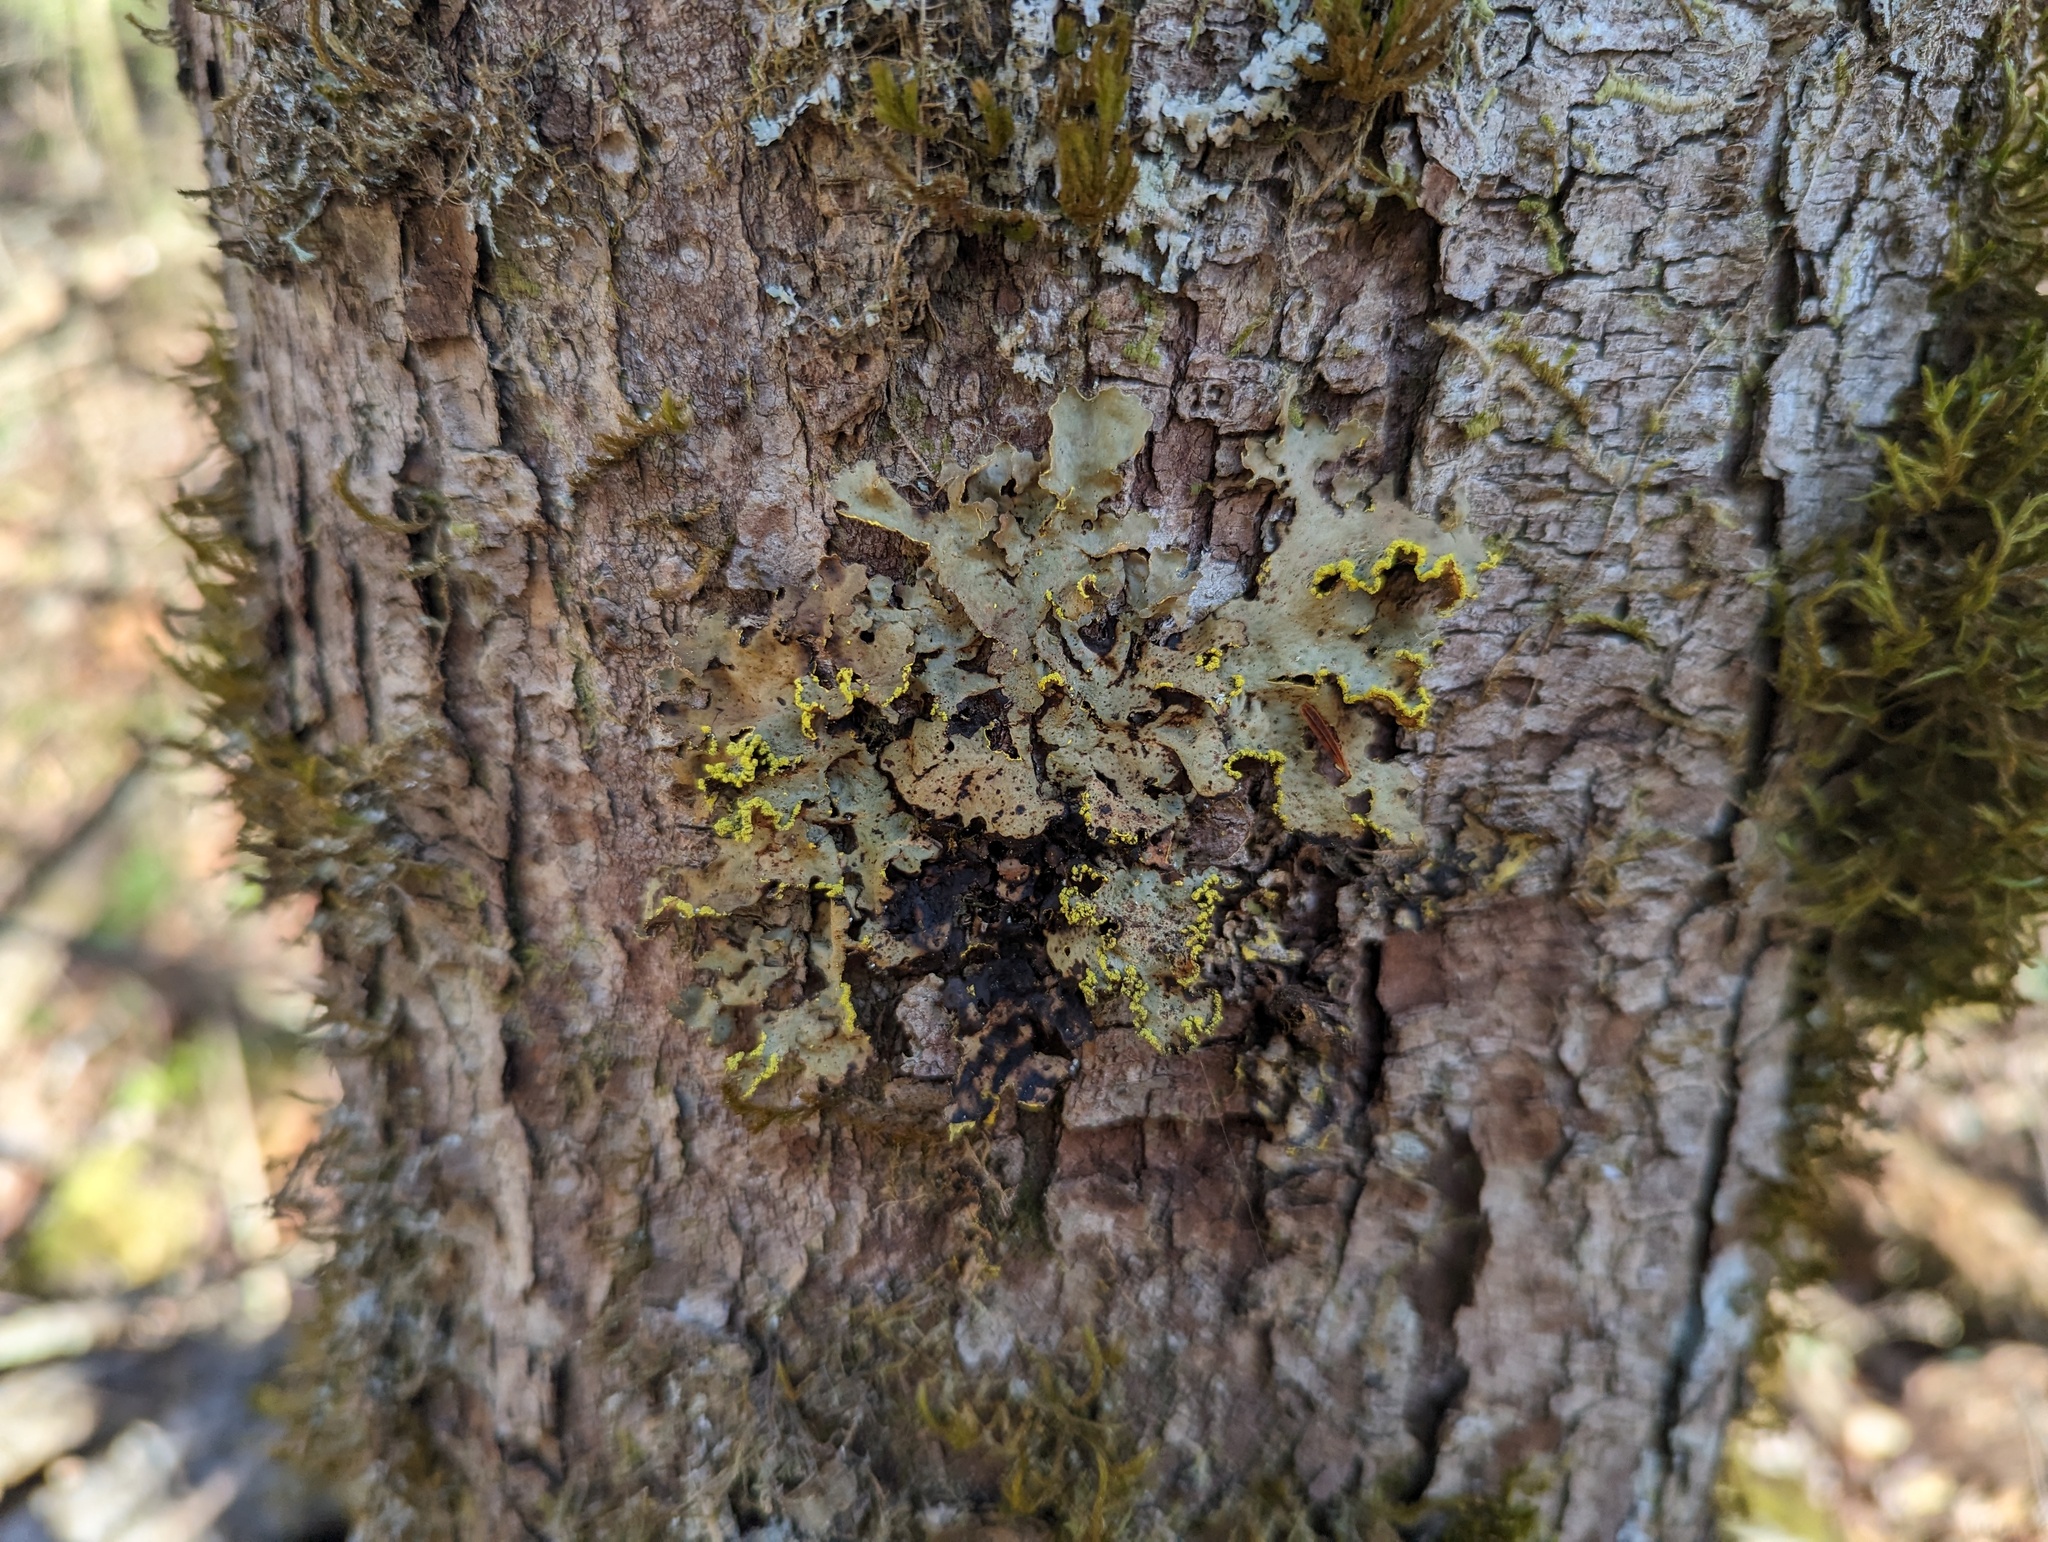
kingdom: Fungi
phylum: Ascomycota
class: Lecanoromycetes
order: Peltigerales
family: Lobariaceae
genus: Pseudocyphellaria
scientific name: Pseudocyphellaria aurata
